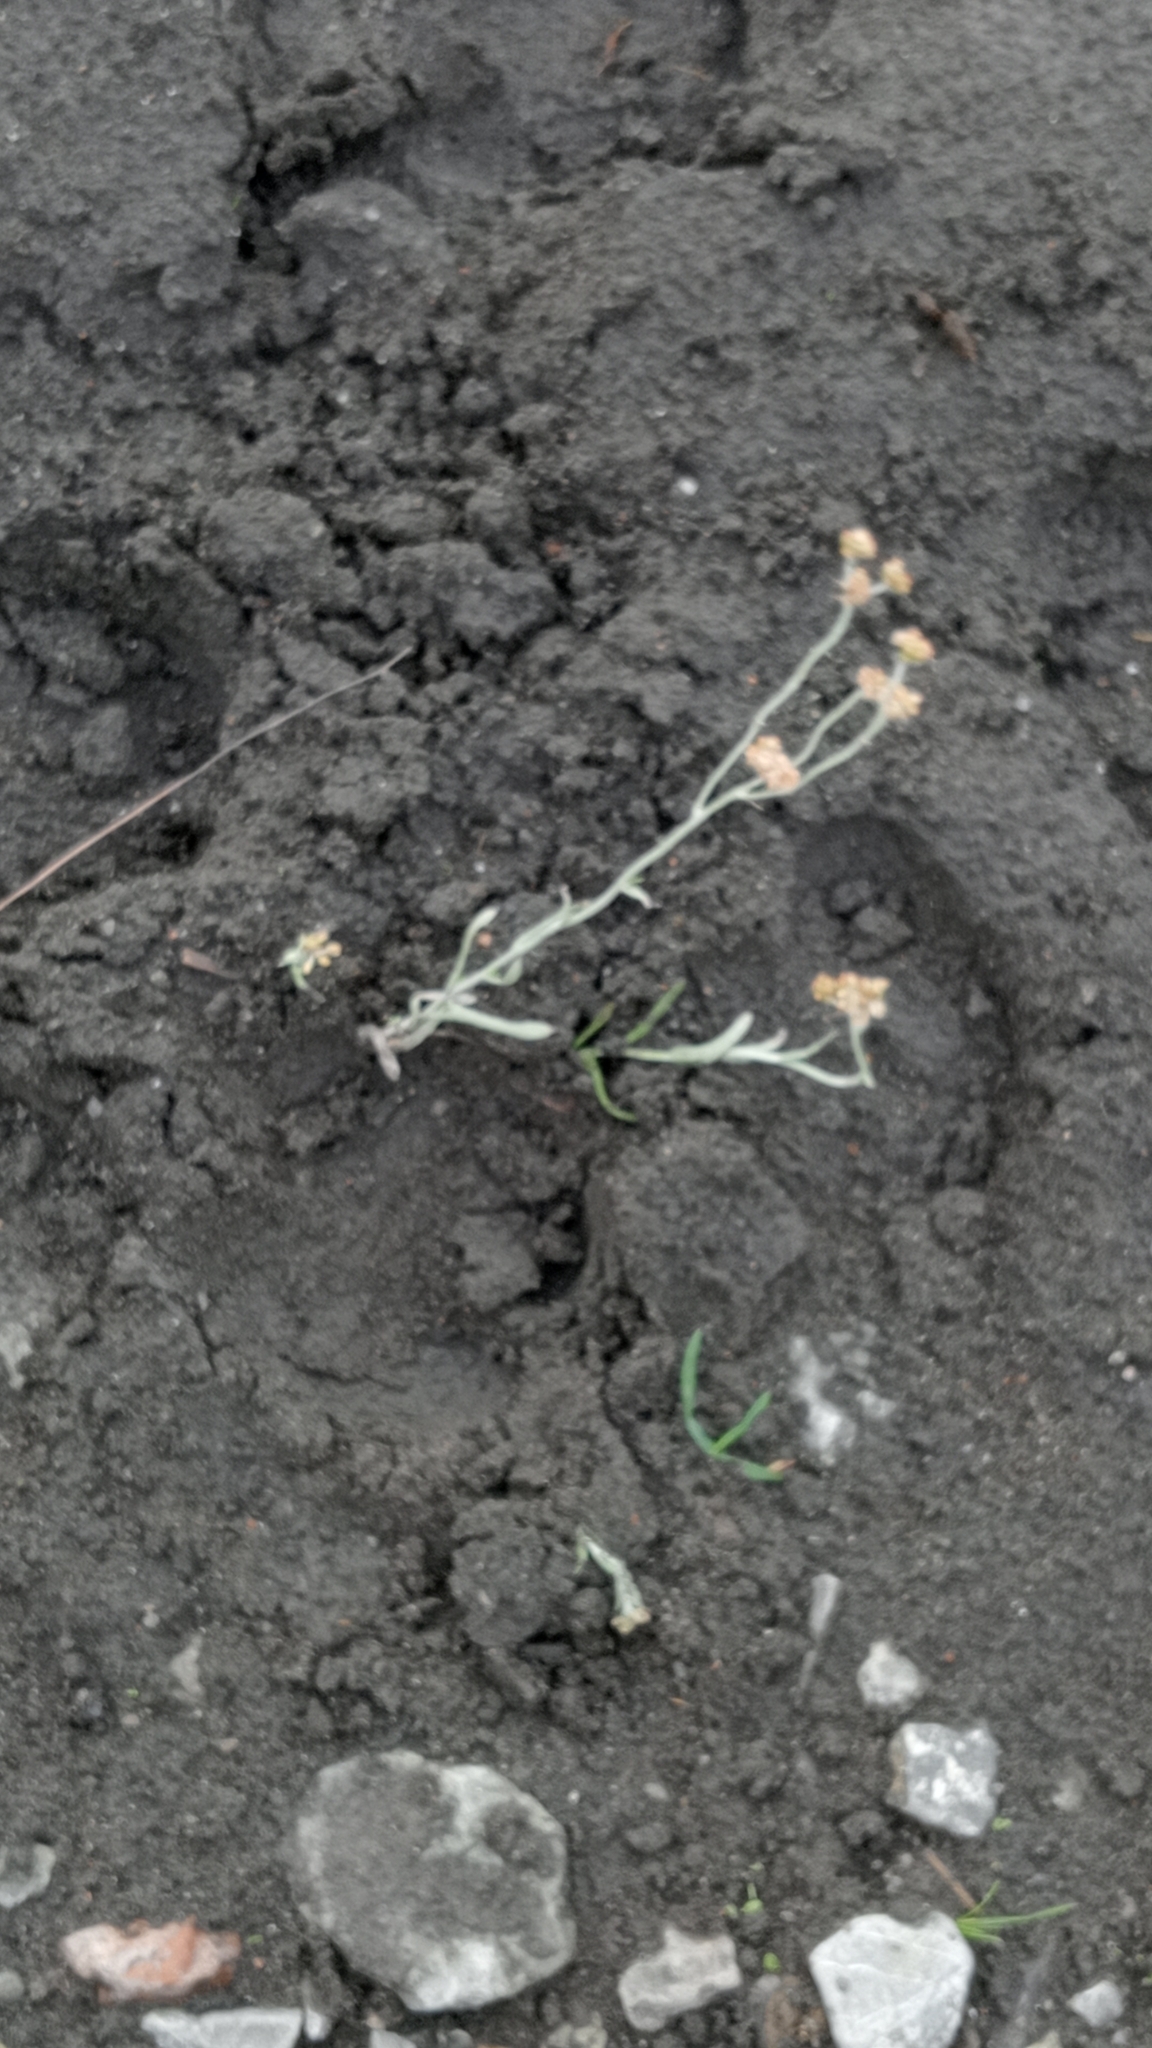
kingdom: Plantae
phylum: Tracheophyta
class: Magnoliopsida
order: Asterales
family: Asteraceae
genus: Helichrysum
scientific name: Helichrysum luteoalbum
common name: Daisy
